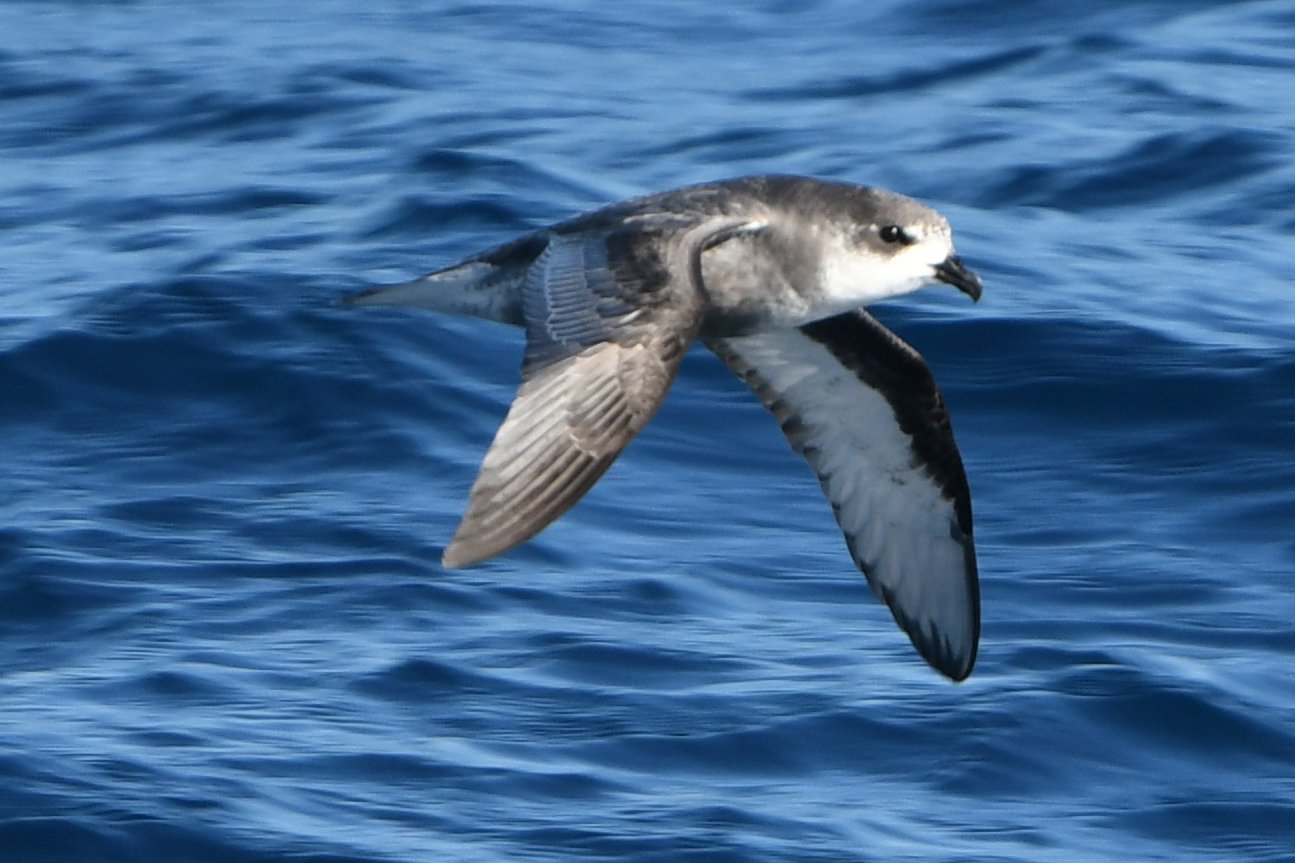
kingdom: Animalia
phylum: Chordata
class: Aves
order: Procellariiformes
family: Procellariidae
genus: Pterodroma
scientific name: Pterodroma inexpectata
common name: Mottled petrel
